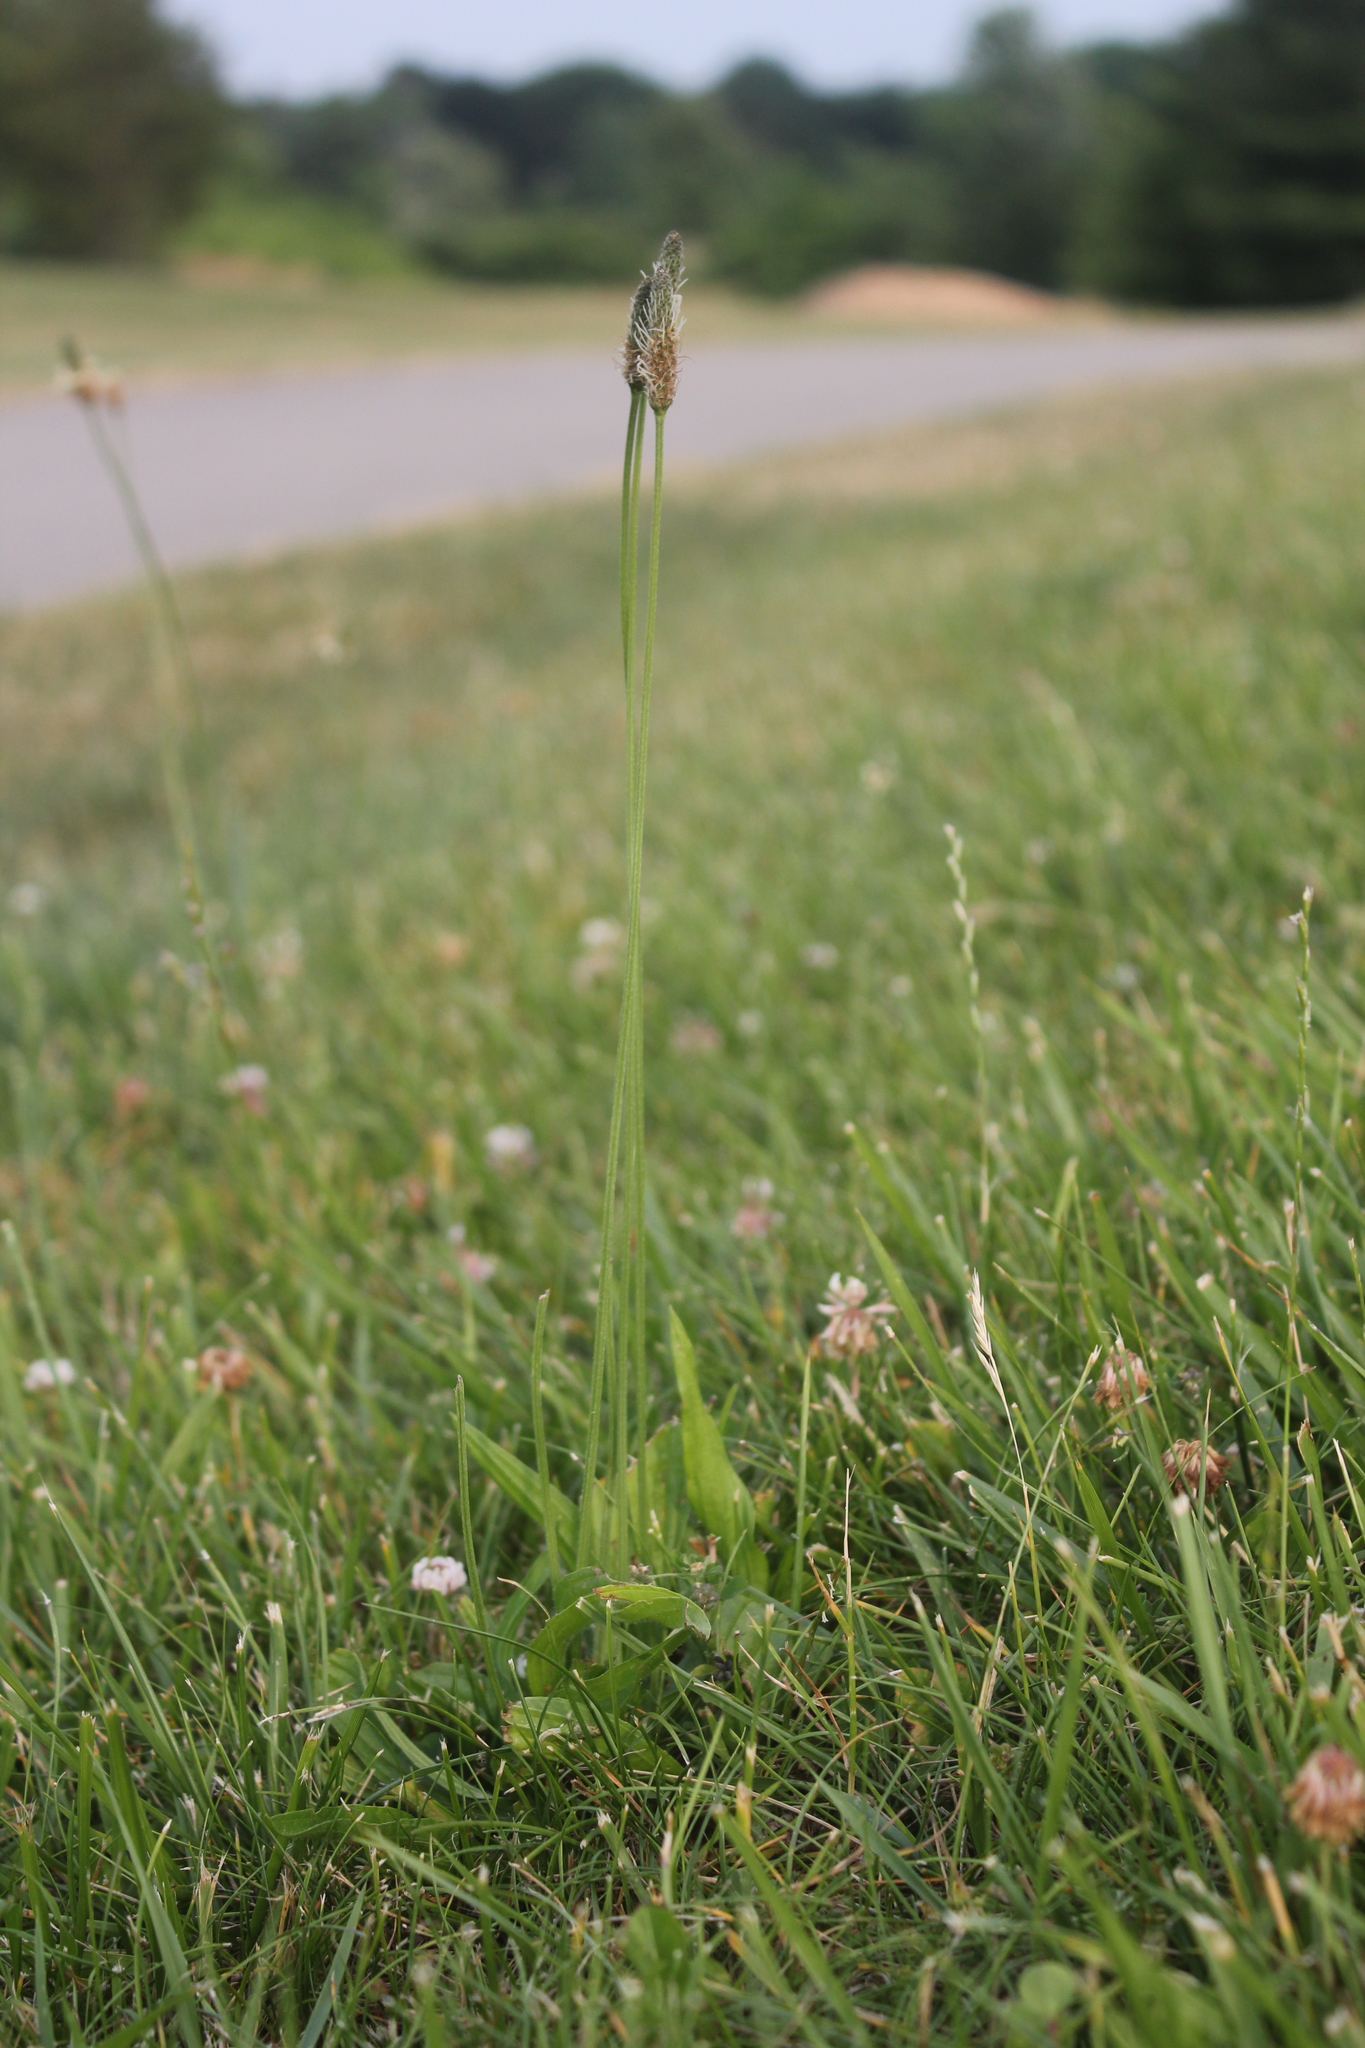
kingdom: Plantae
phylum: Tracheophyta
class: Magnoliopsida
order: Lamiales
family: Plantaginaceae
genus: Plantago
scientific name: Plantago lanceolata
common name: Ribwort plantain
